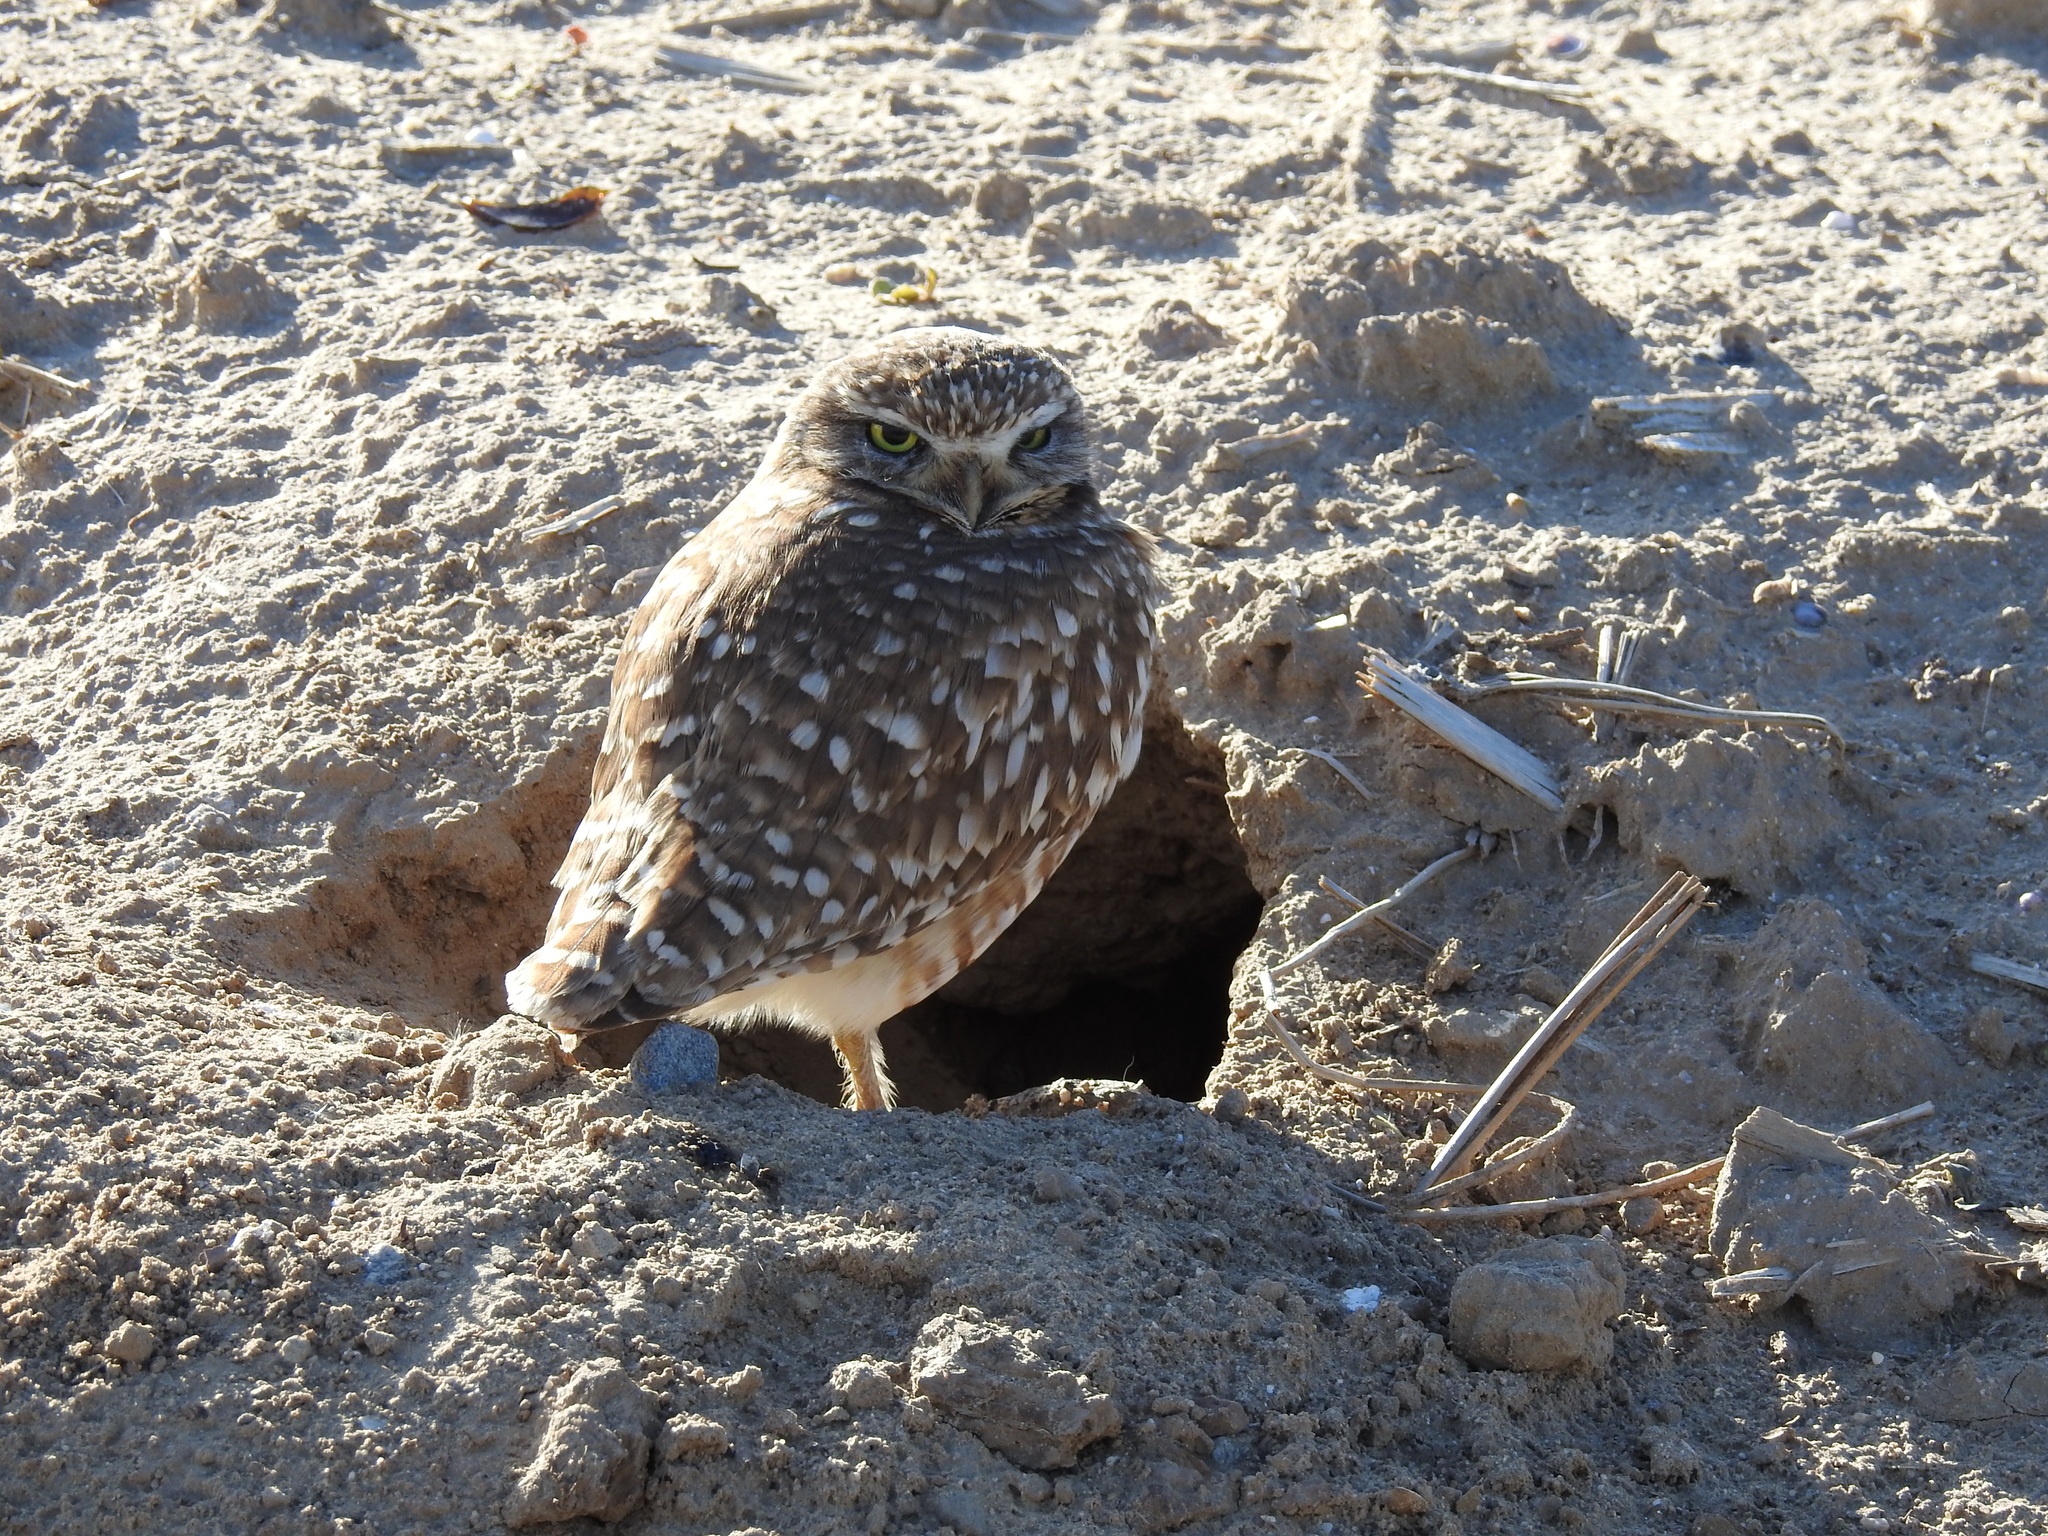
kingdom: Animalia
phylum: Chordata
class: Aves
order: Strigiformes
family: Strigidae
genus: Athene
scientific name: Athene cunicularia
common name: Burrowing owl
